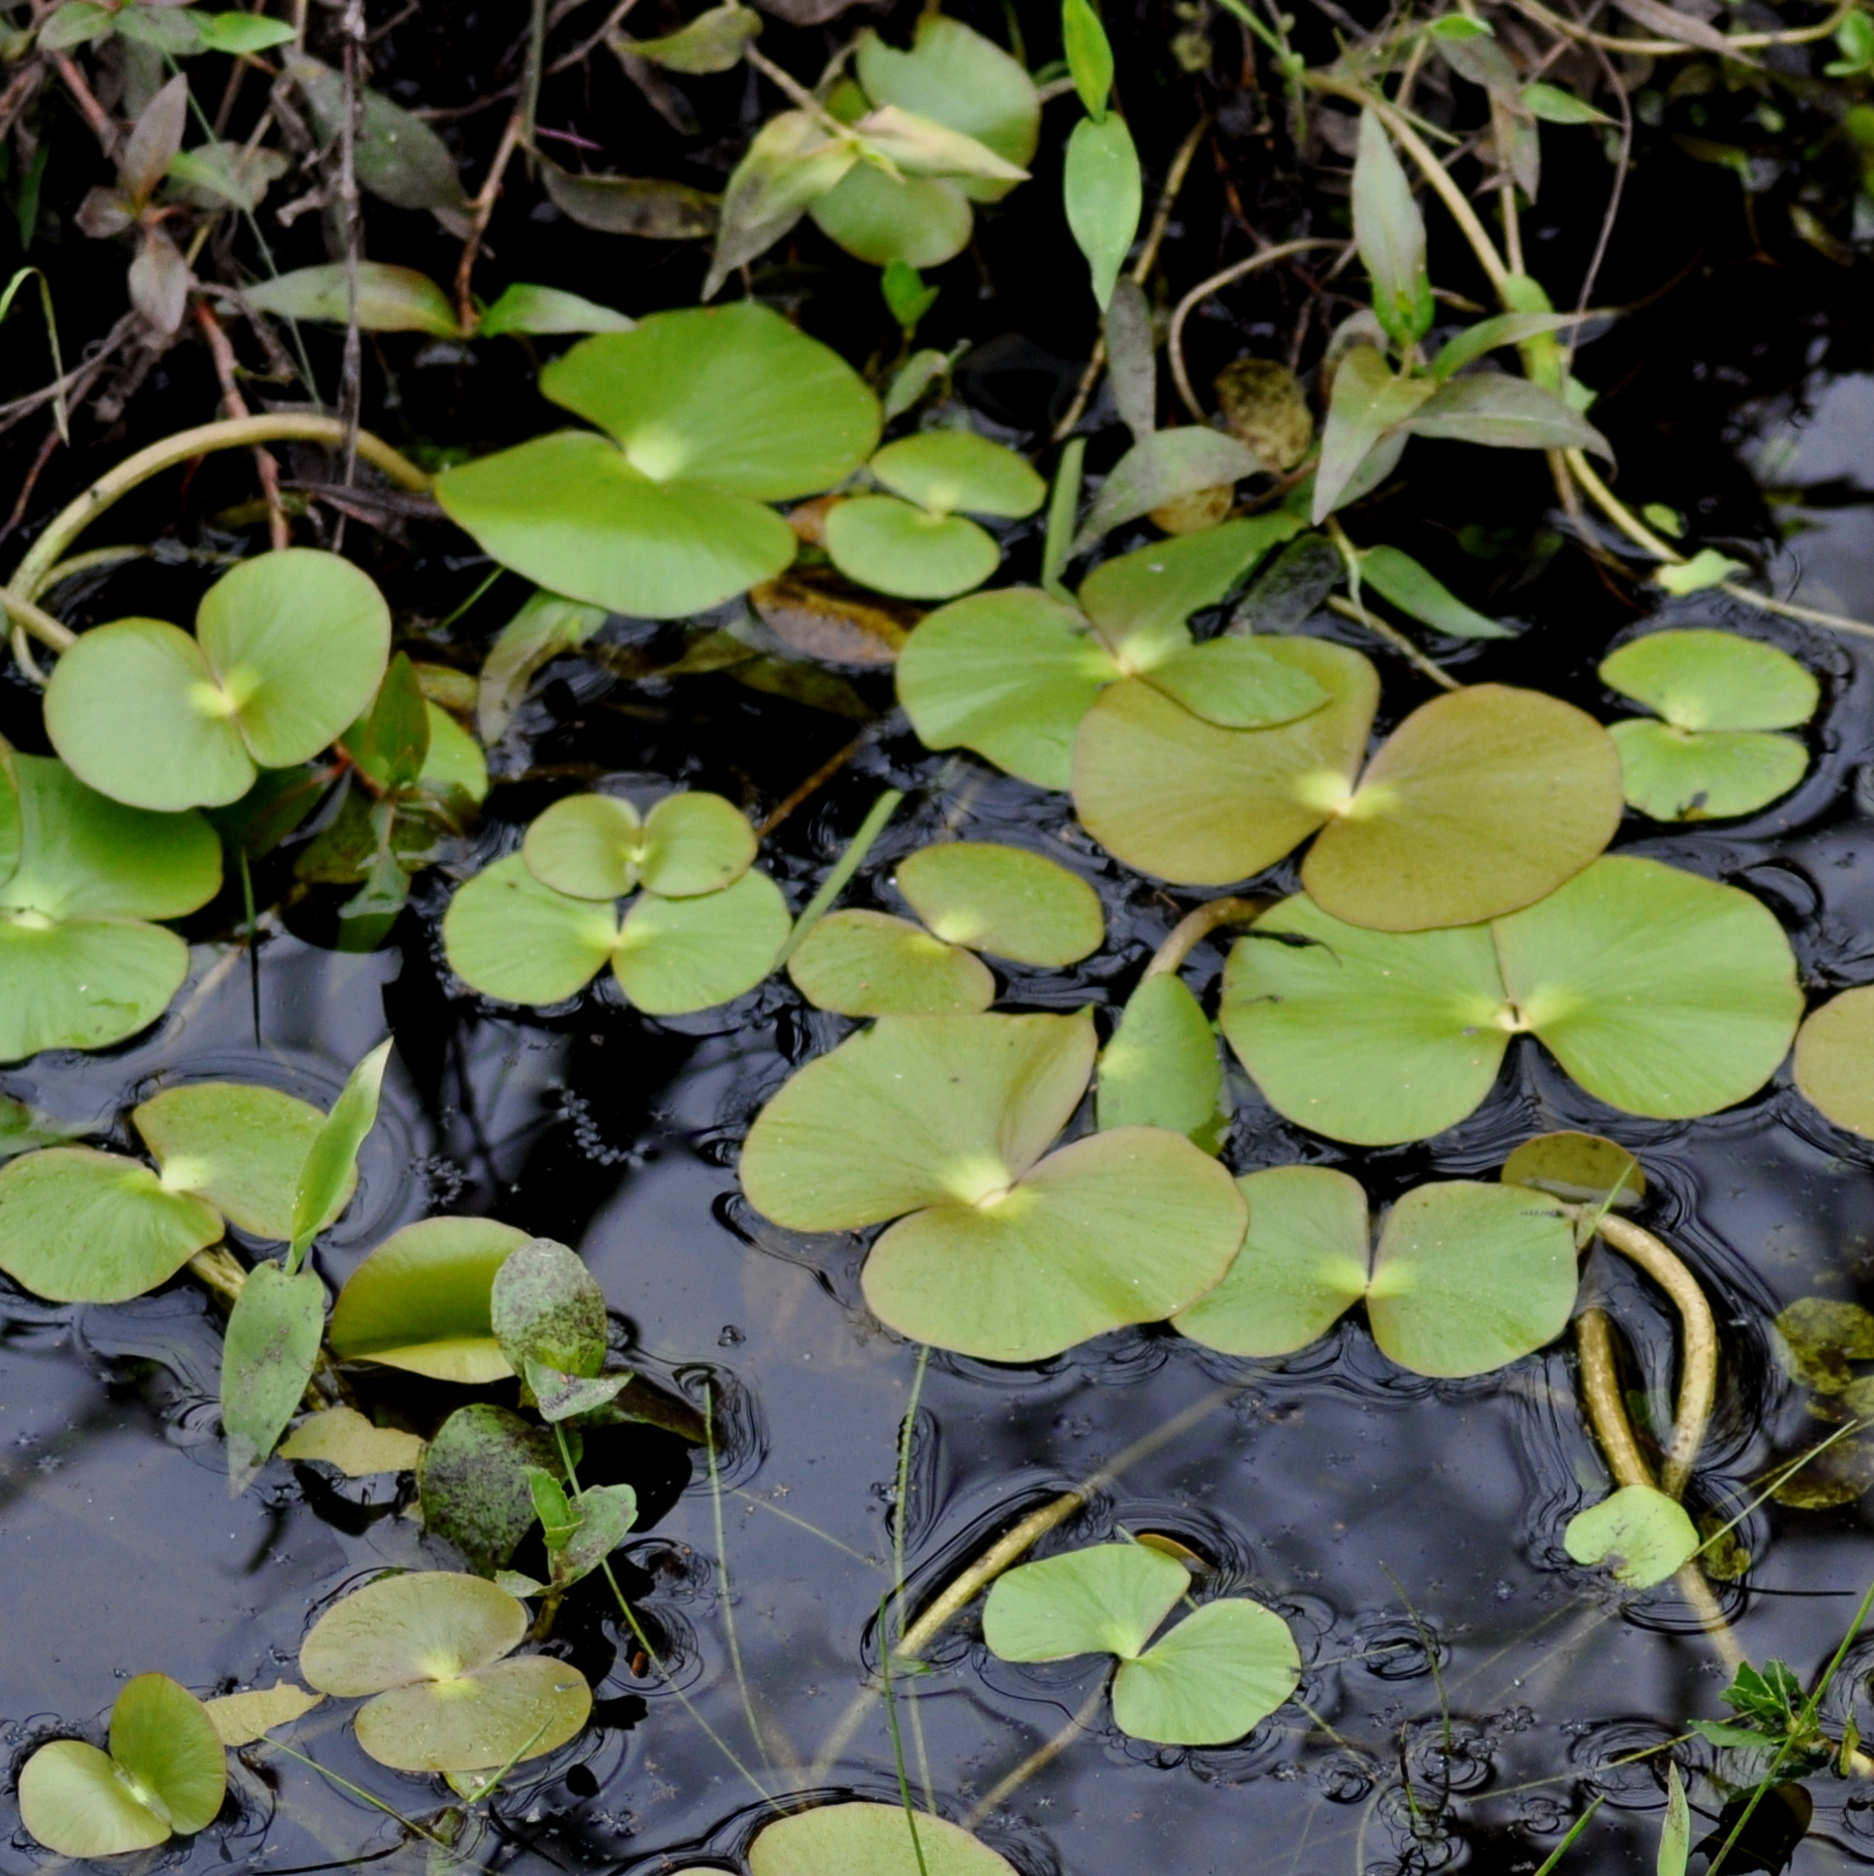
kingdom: Plantae
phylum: Tracheophyta
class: Polypodiopsida
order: Salviniales
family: Marsileaceae
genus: Regnellidium
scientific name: Regnellidium diphyllum
